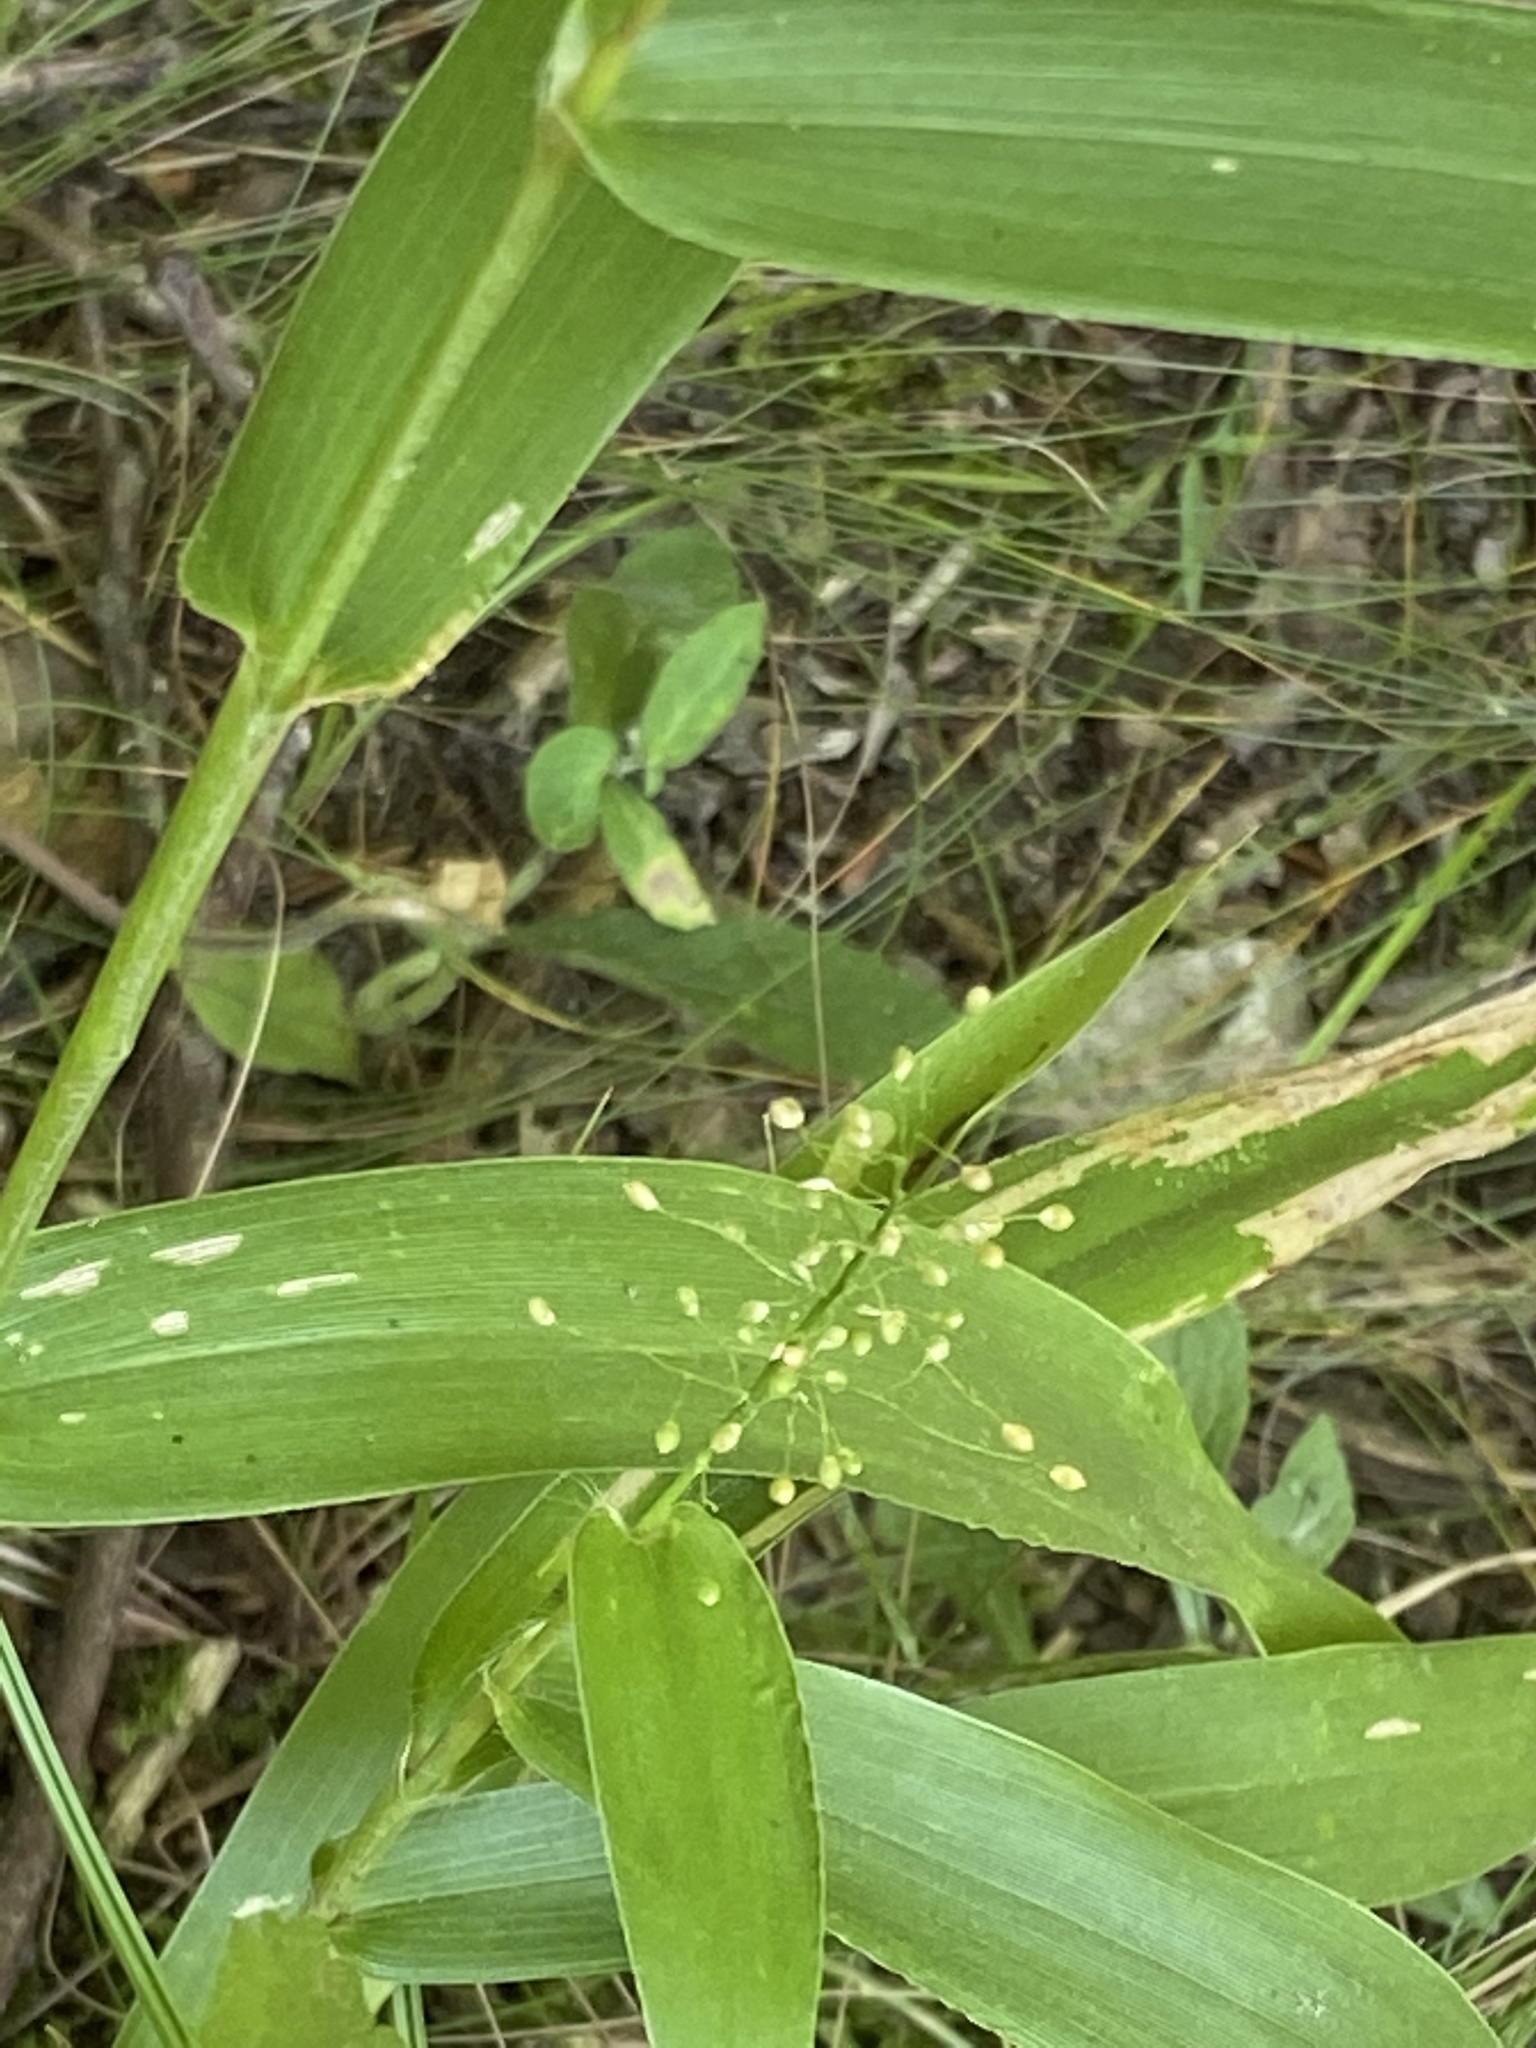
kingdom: Plantae
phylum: Tracheophyta
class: Liliopsida
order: Poales
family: Poaceae
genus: Dichanthelium
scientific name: Dichanthelium sphaerocarpon
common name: Round-fruited panicgrass
